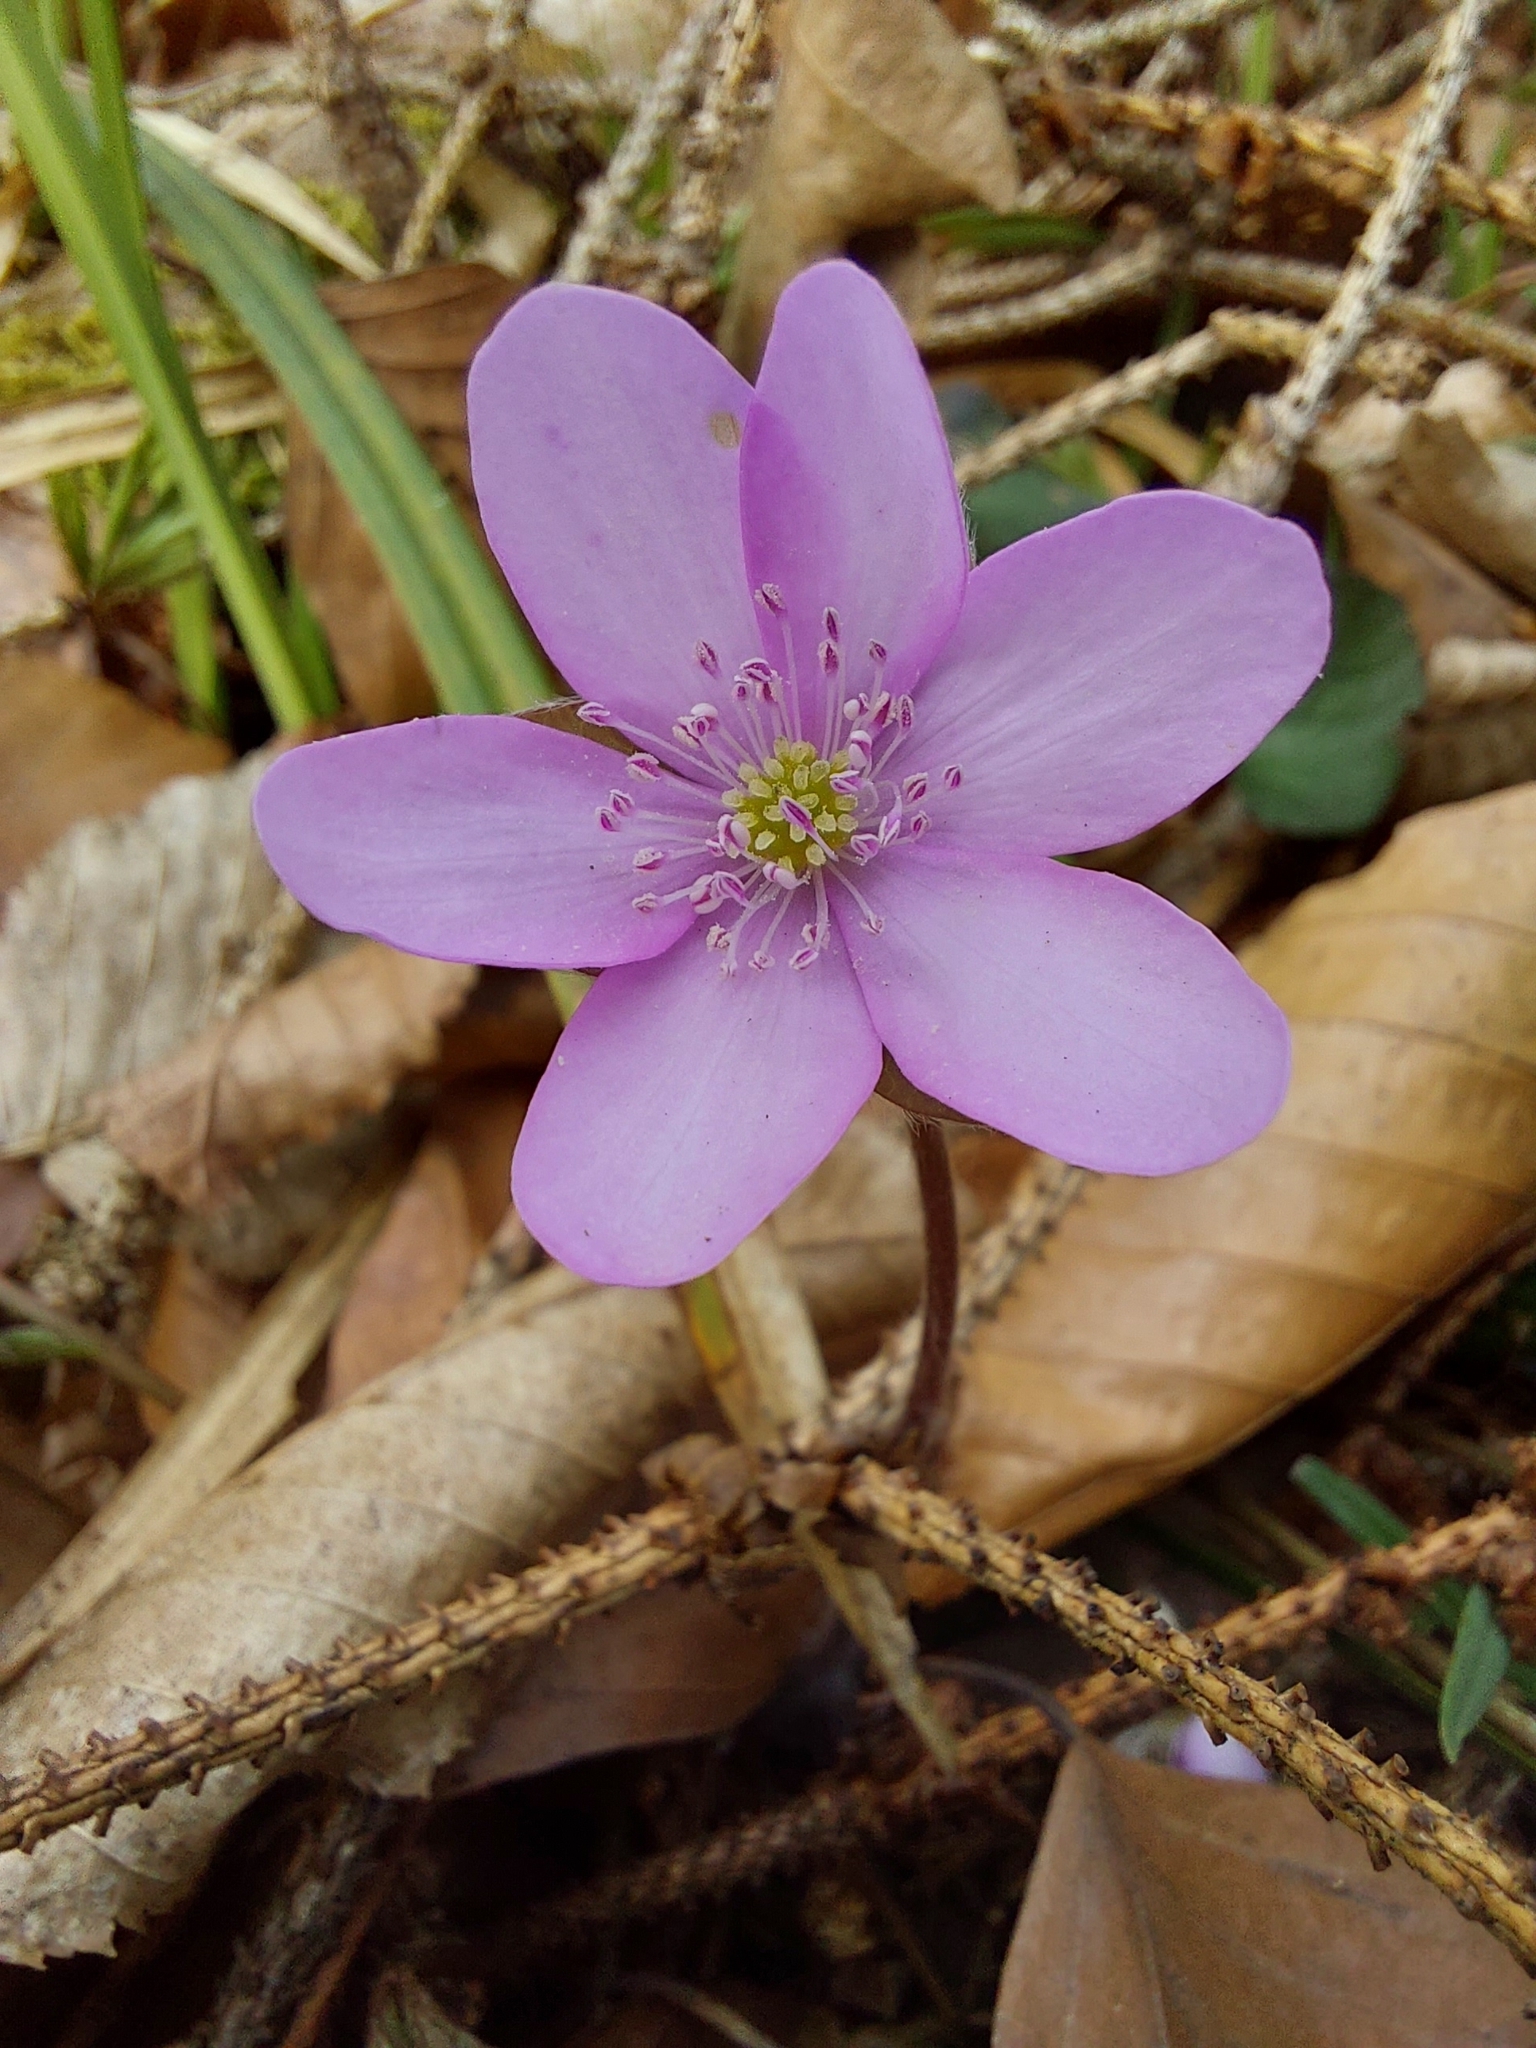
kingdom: Plantae
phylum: Tracheophyta
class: Magnoliopsida
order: Ranunculales
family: Ranunculaceae
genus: Hepatica
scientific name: Hepatica nobilis
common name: Liverleaf
